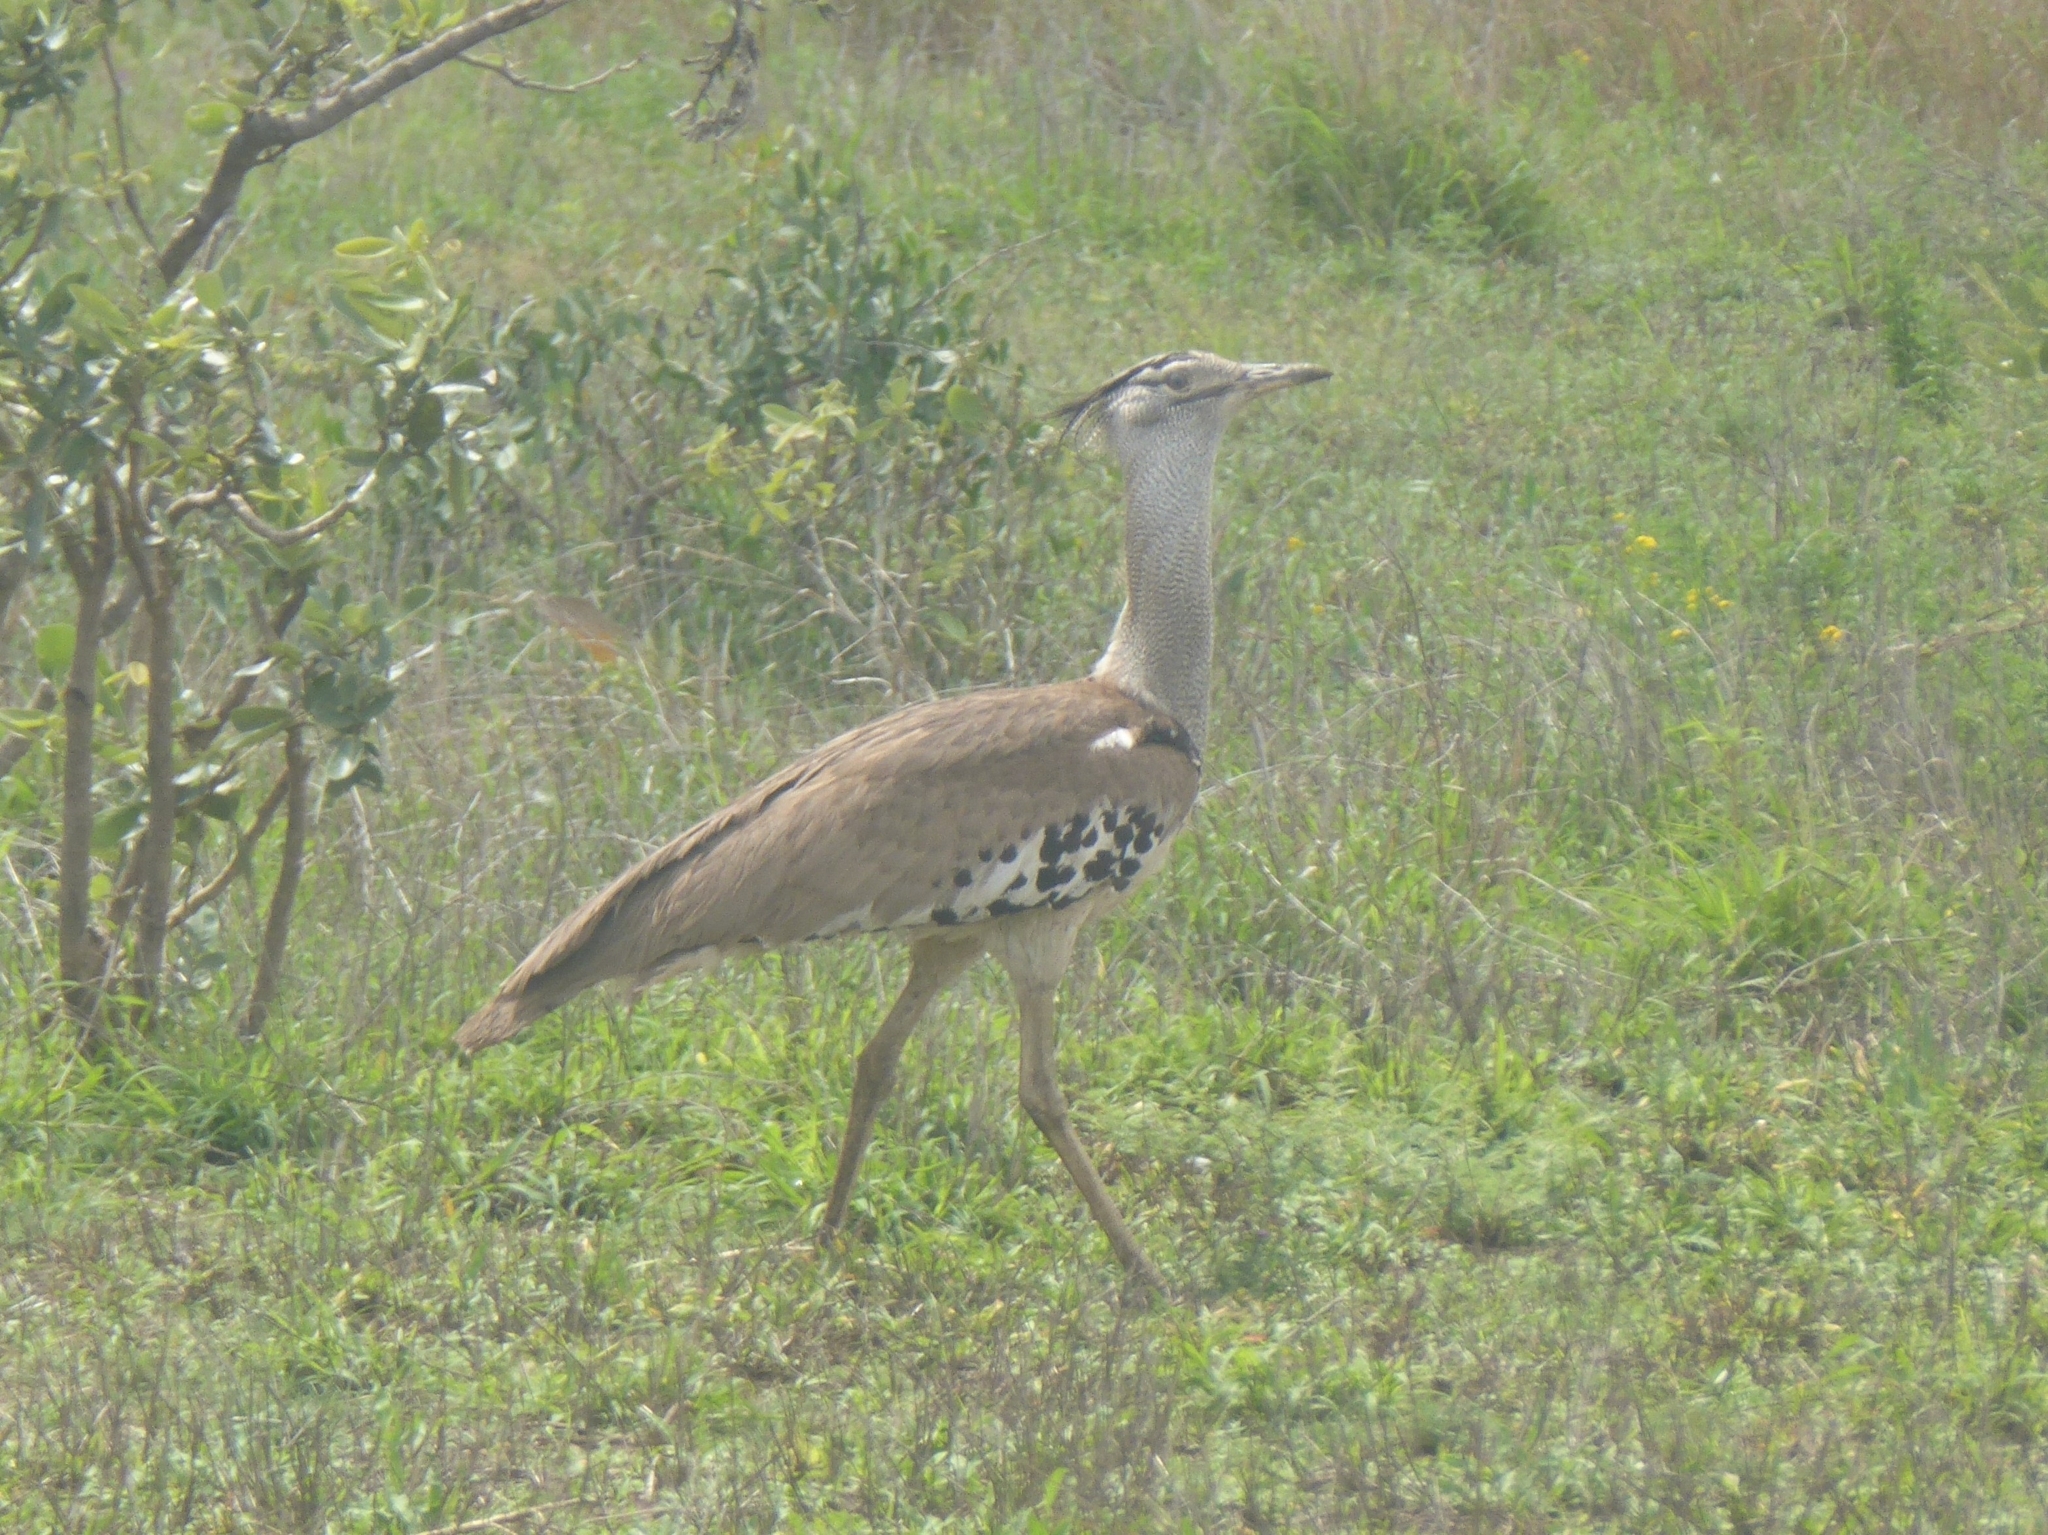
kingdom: Animalia
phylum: Chordata
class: Aves
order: Otidiformes
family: Otididae
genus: Ardeotis
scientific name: Ardeotis kori
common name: Kori bustard
